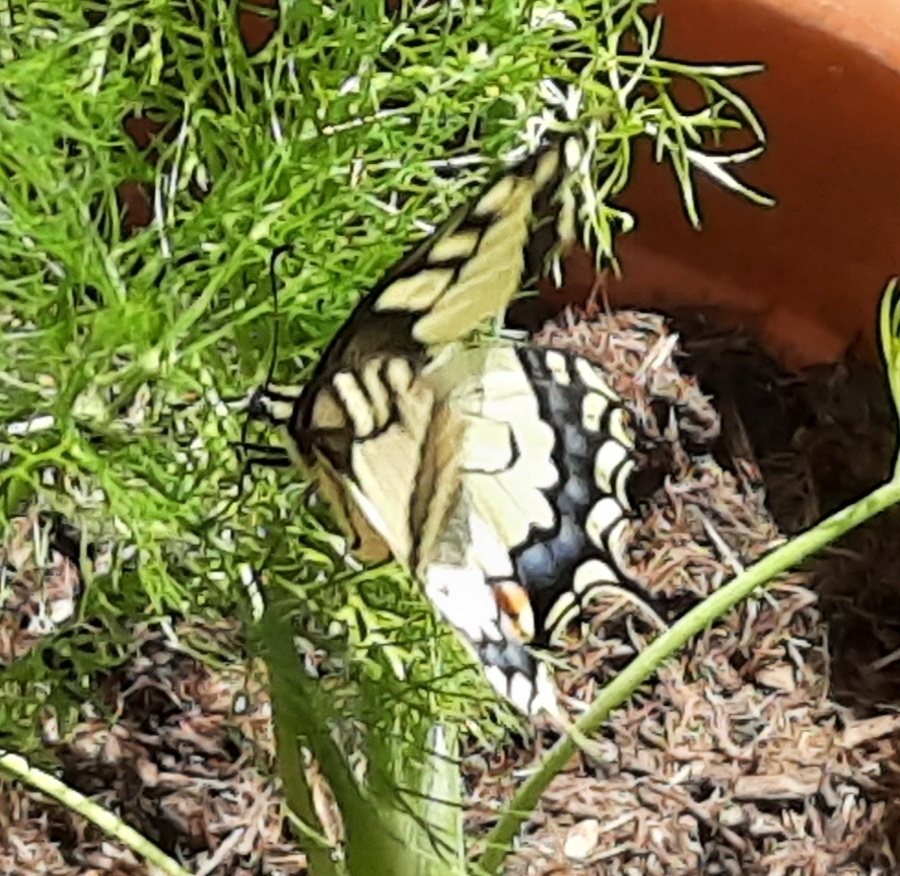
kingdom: Animalia
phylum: Arthropoda
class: Insecta
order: Lepidoptera
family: Papilionidae
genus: Papilio
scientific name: Papilio machaon
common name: Swallowtail
